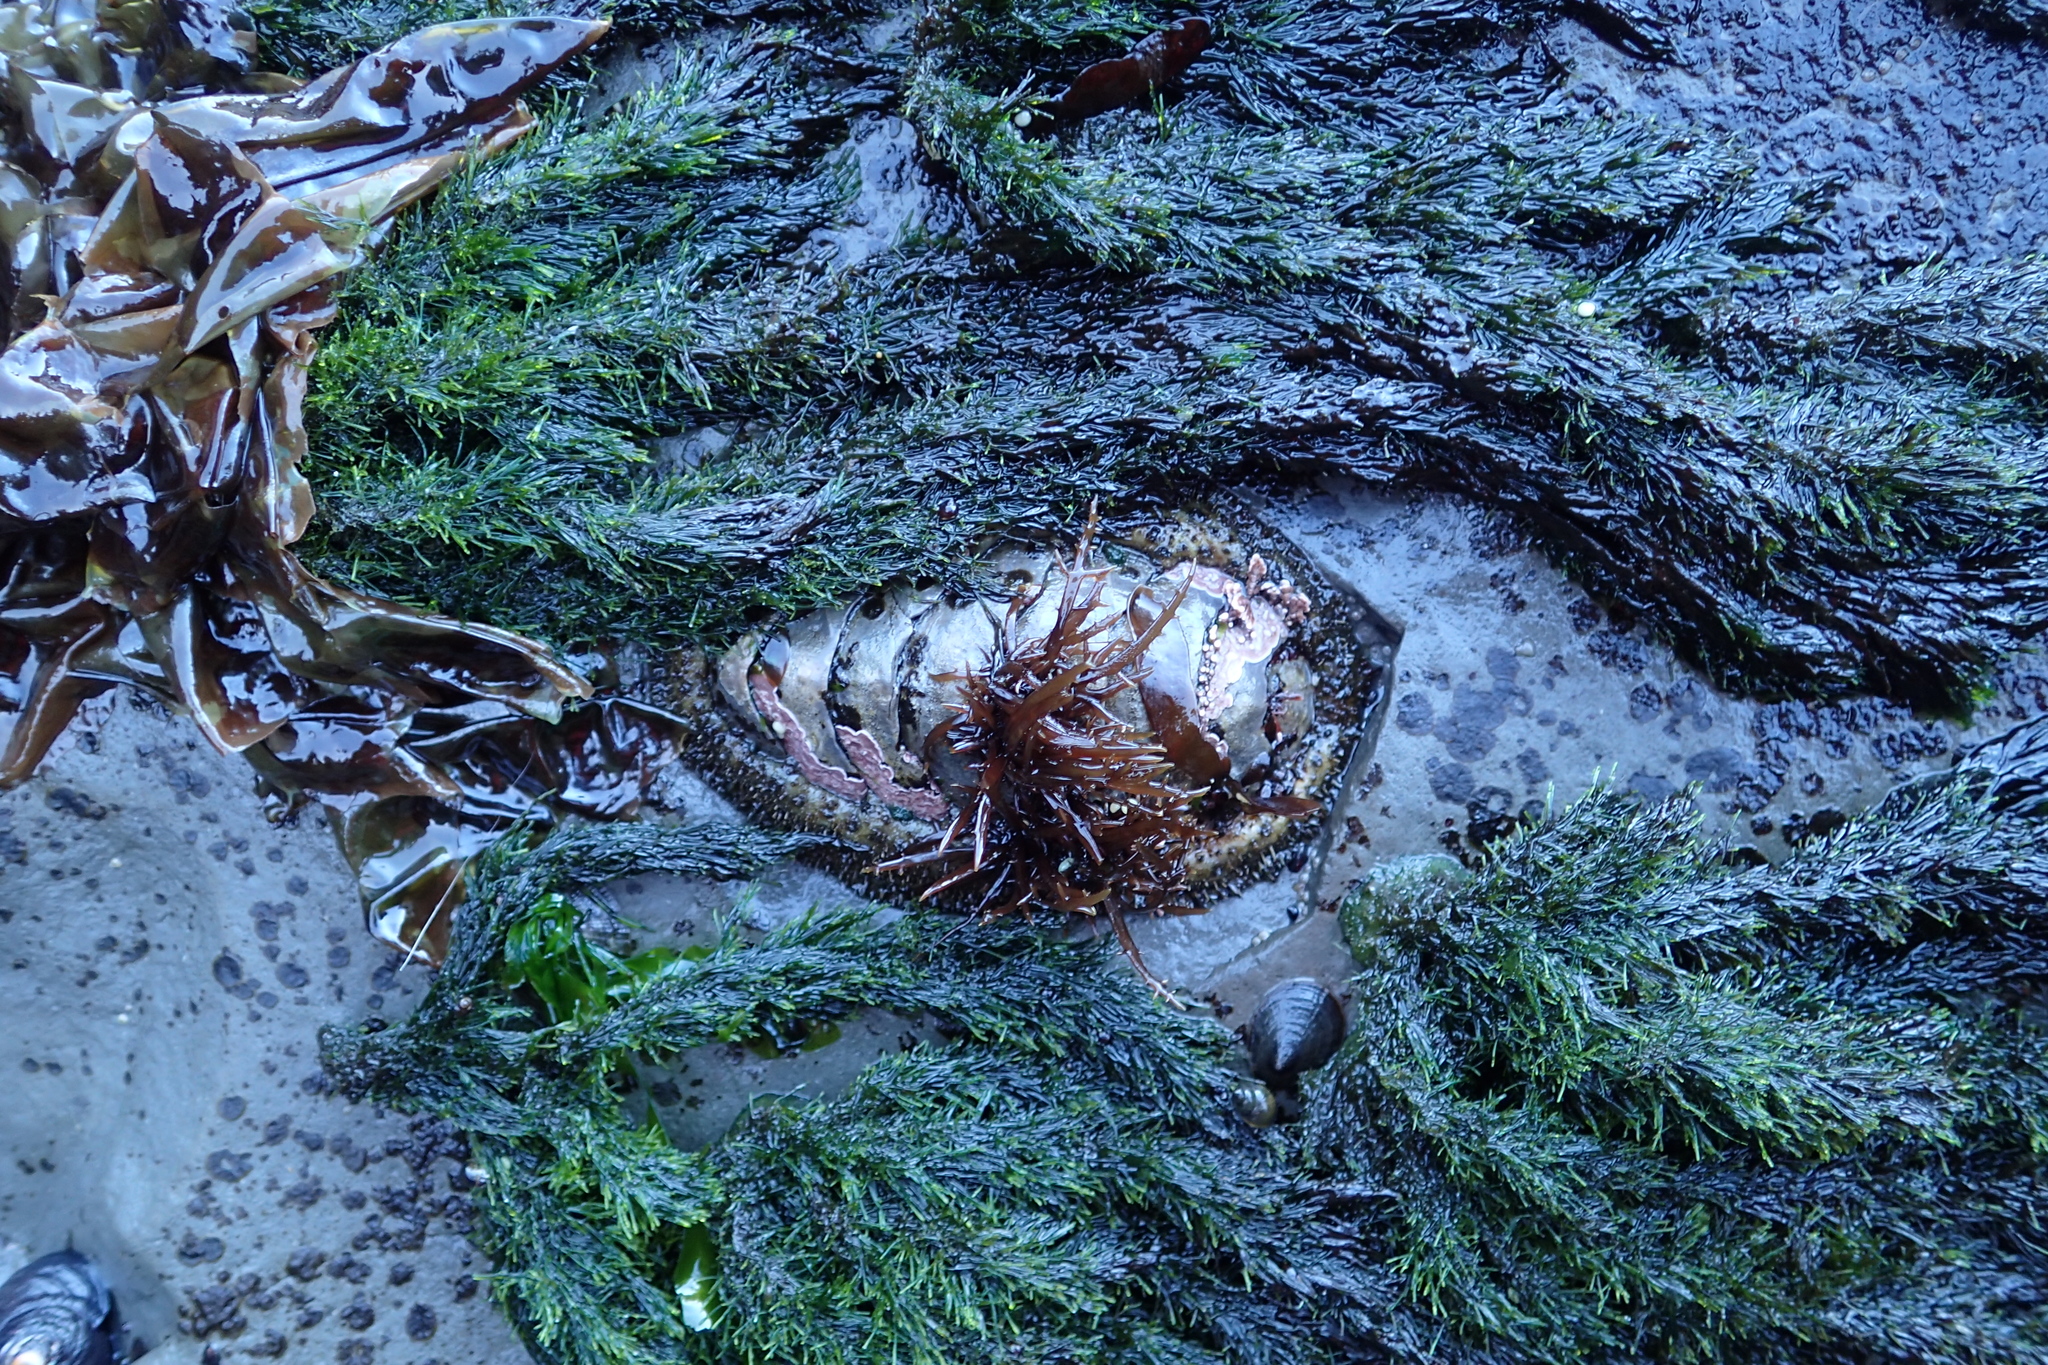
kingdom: Animalia
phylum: Mollusca
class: Polyplacophora
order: Chitonida
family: Mopaliidae
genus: Mopalia
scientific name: Mopalia muscosa
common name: Mossy chiton
